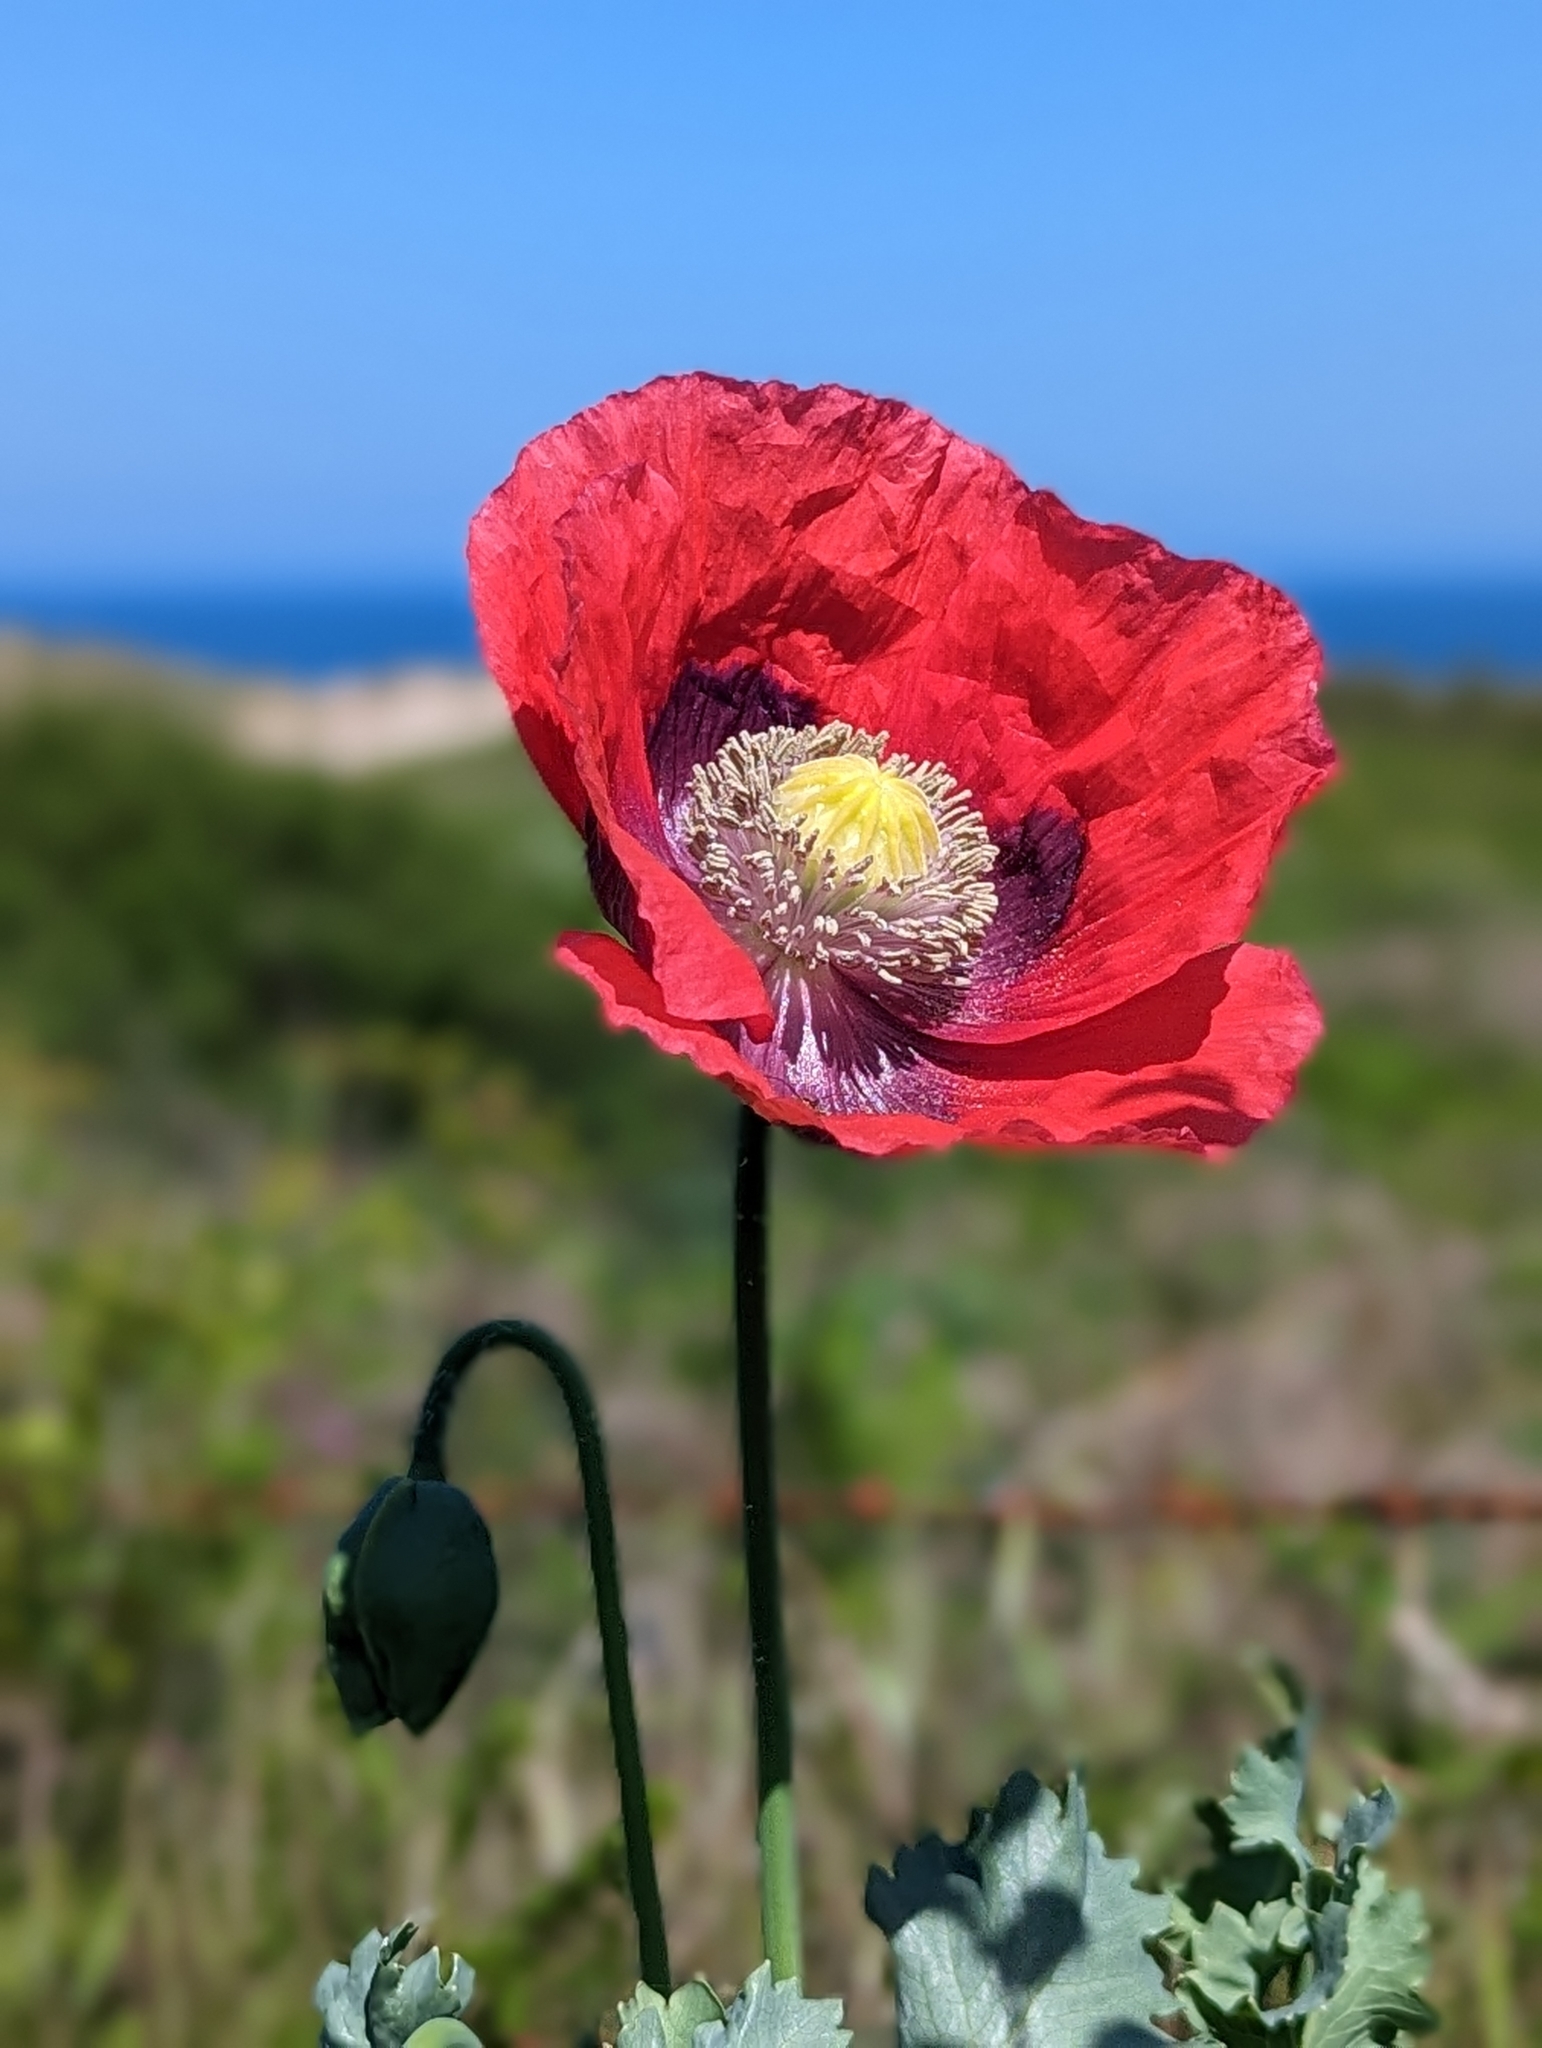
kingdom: Plantae
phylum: Tracheophyta
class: Magnoliopsida
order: Ranunculales
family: Papaveraceae
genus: Papaver
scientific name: Papaver somniferum
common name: Opium poppy
